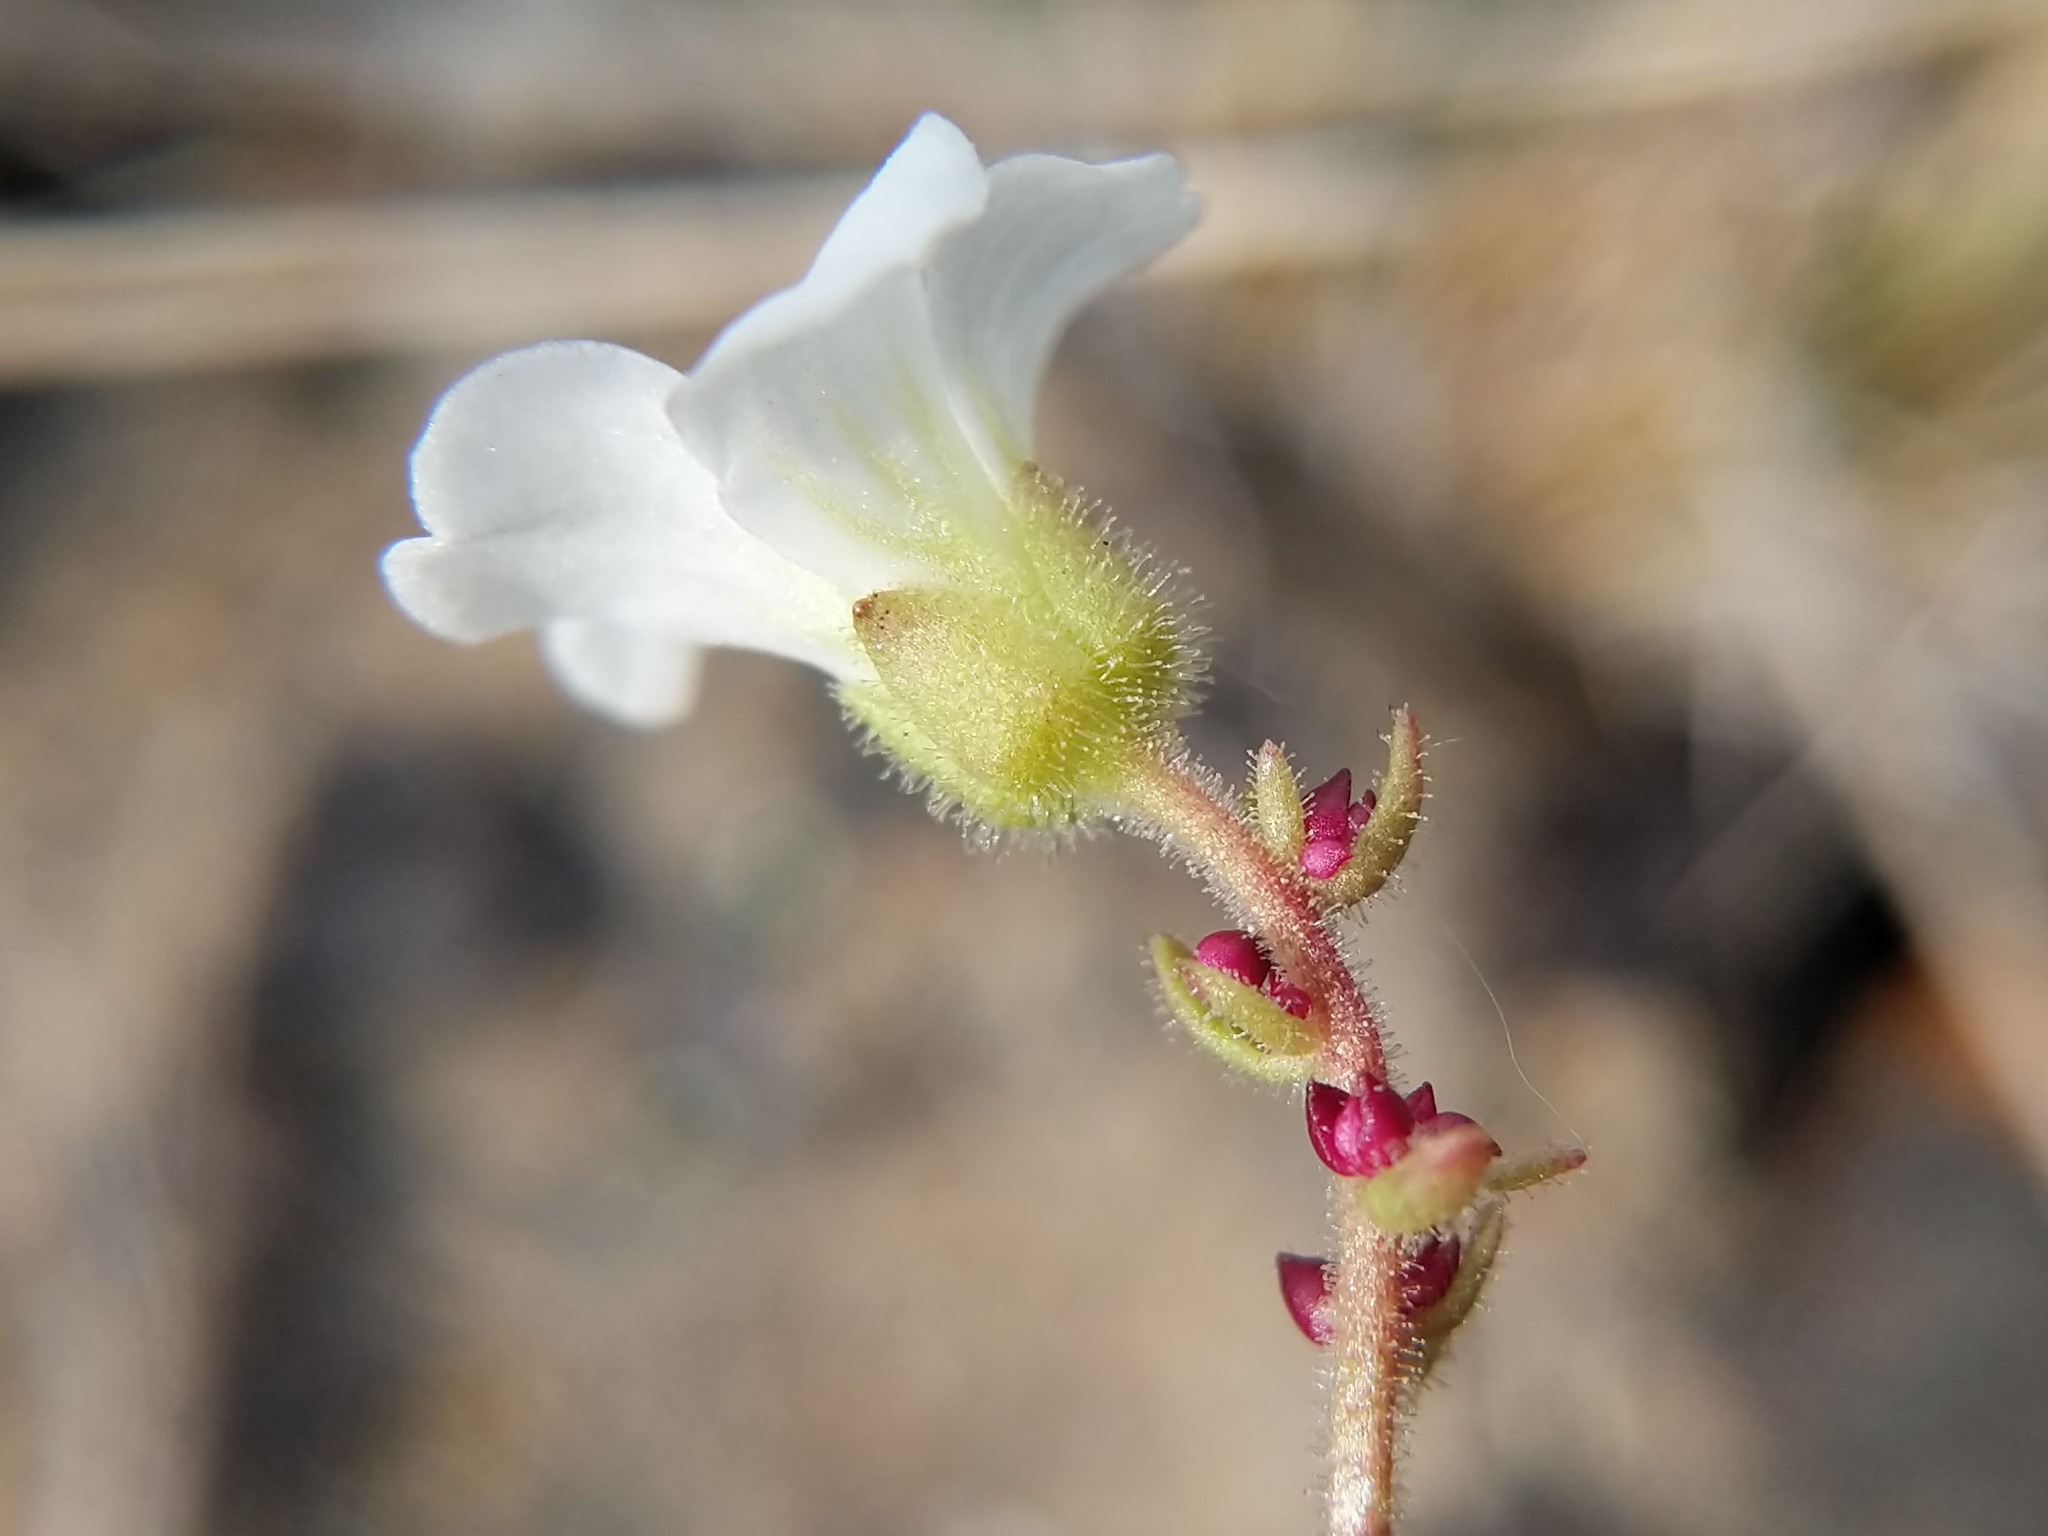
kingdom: Plantae
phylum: Tracheophyta
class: Magnoliopsida
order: Saxifragales
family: Saxifragaceae
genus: Saxifraga
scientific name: Saxifraga cernua
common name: Drooping saxifrage
